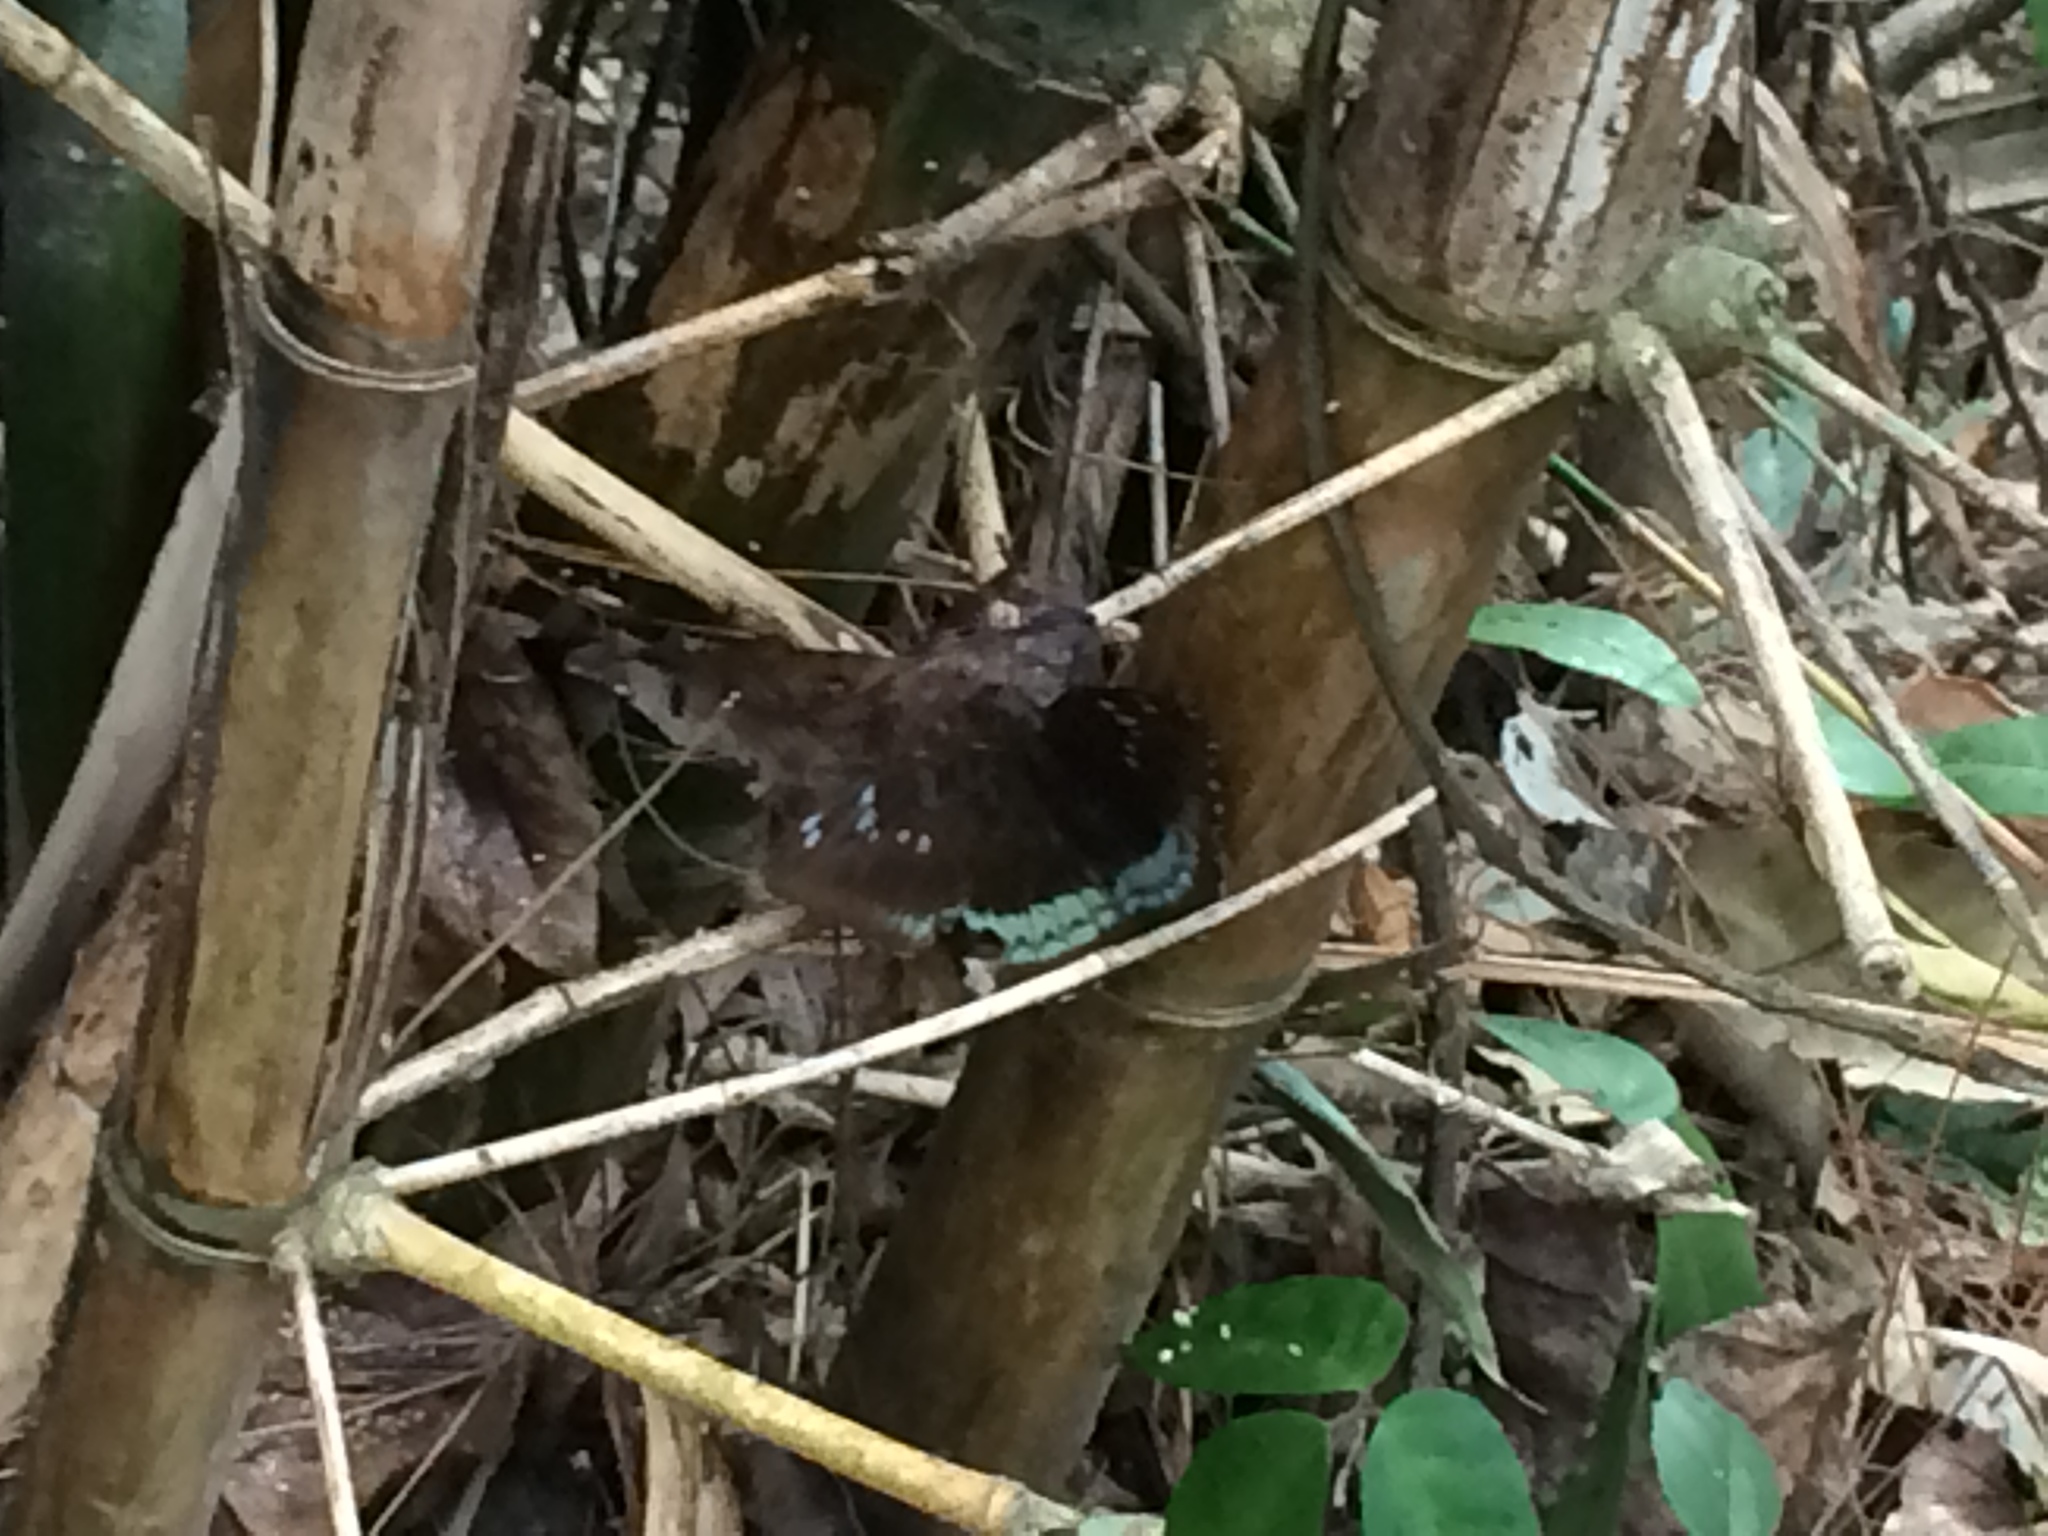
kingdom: Animalia
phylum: Arthropoda
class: Insecta
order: Lepidoptera
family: Nymphalidae
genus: Tanaecia
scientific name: Tanaecia
